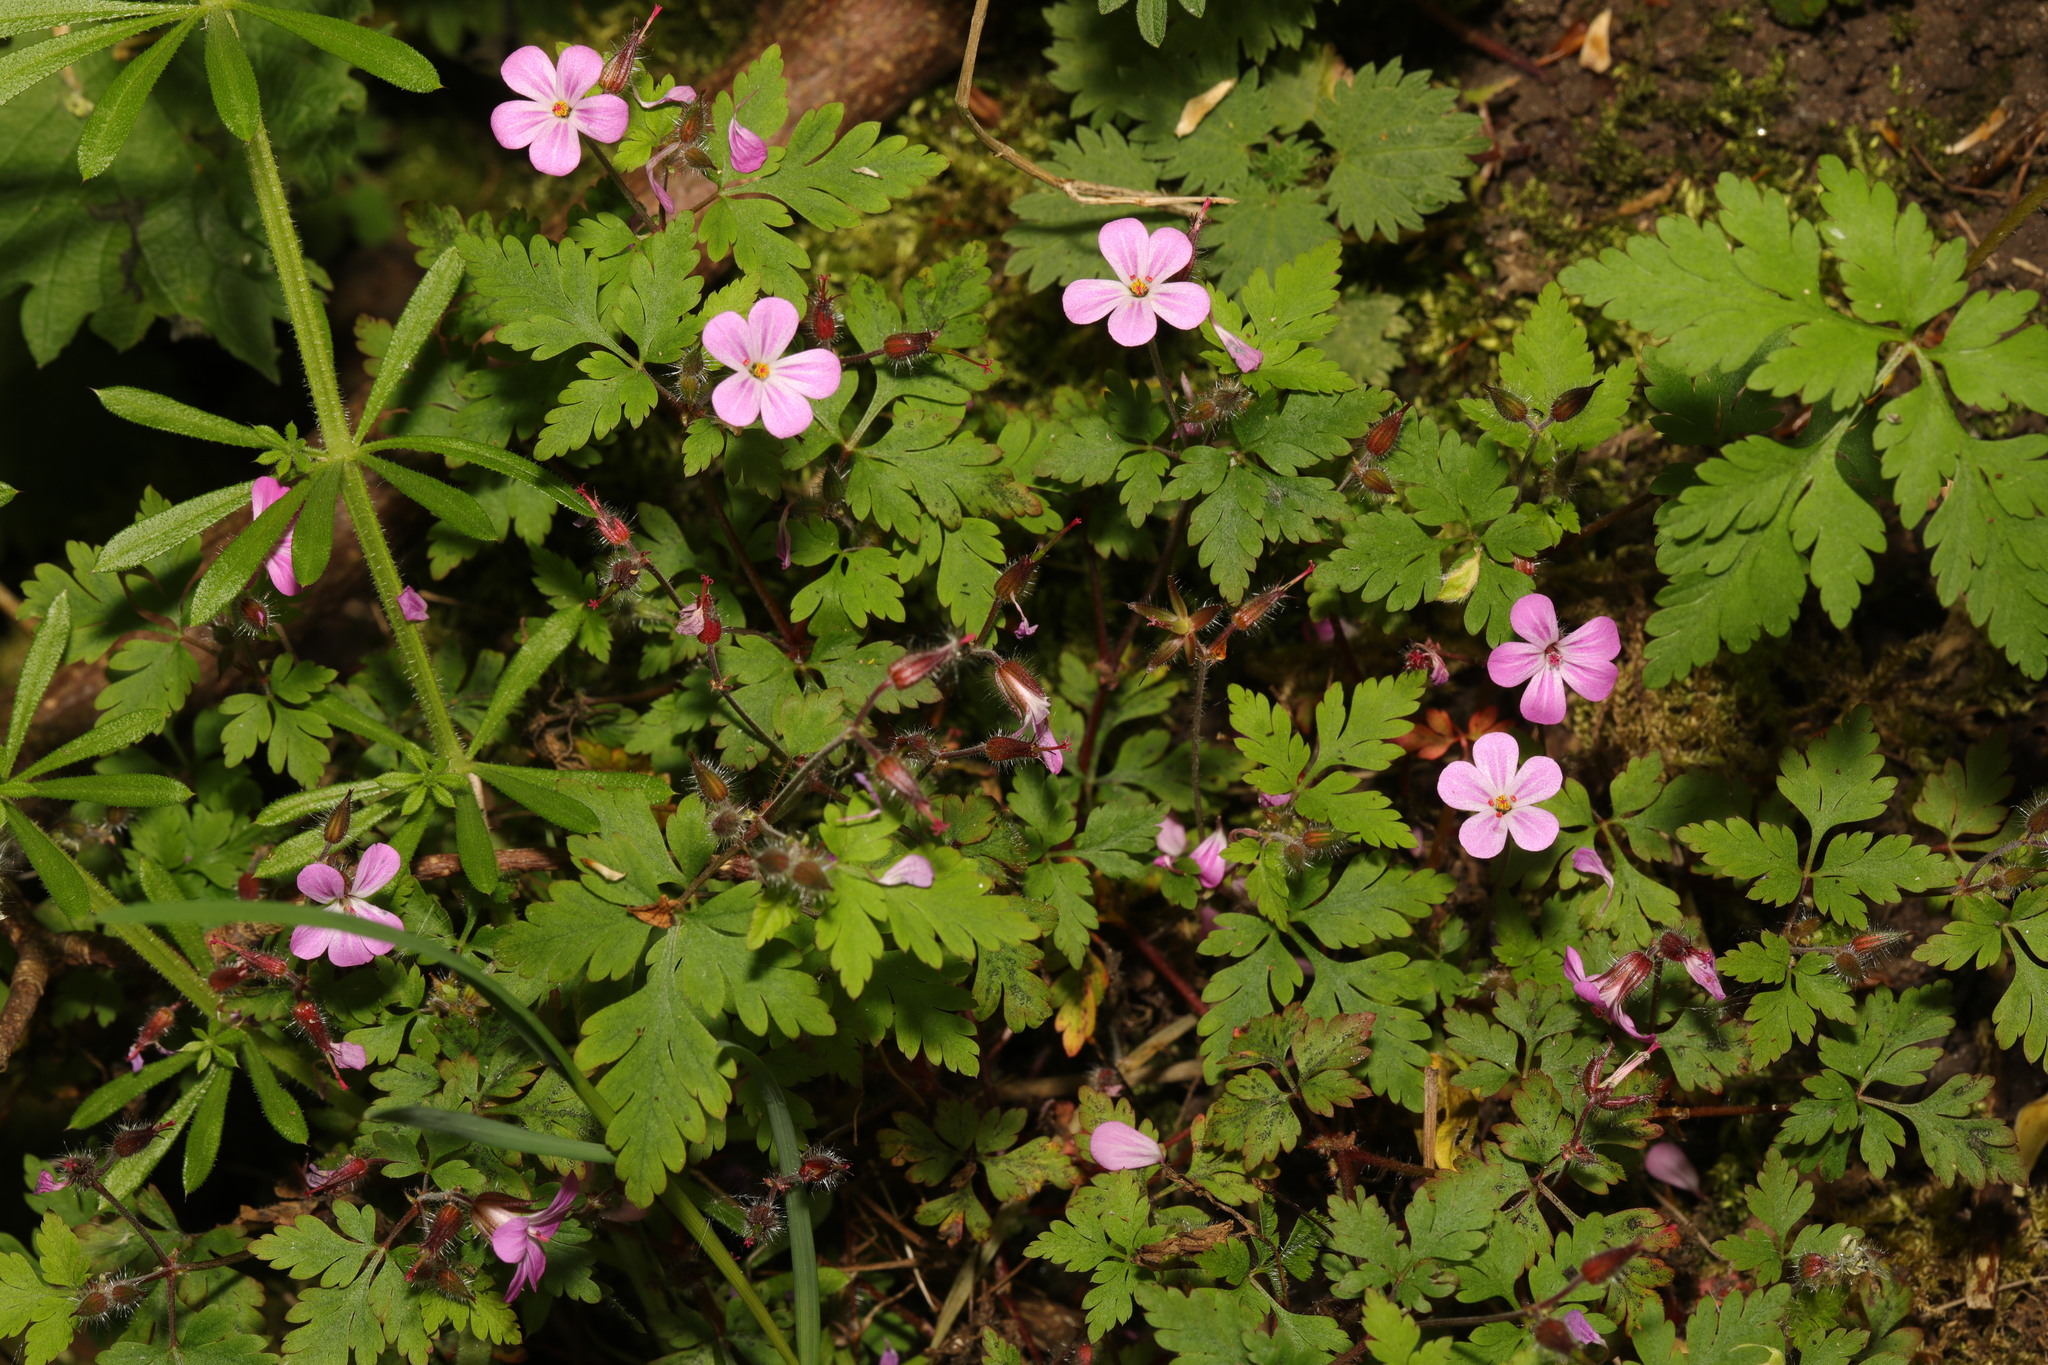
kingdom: Plantae
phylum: Tracheophyta
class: Magnoliopsida
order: Geraniales
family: Geraniaceae
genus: Geranium
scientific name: Geranium robertianum
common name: Herb-robert
